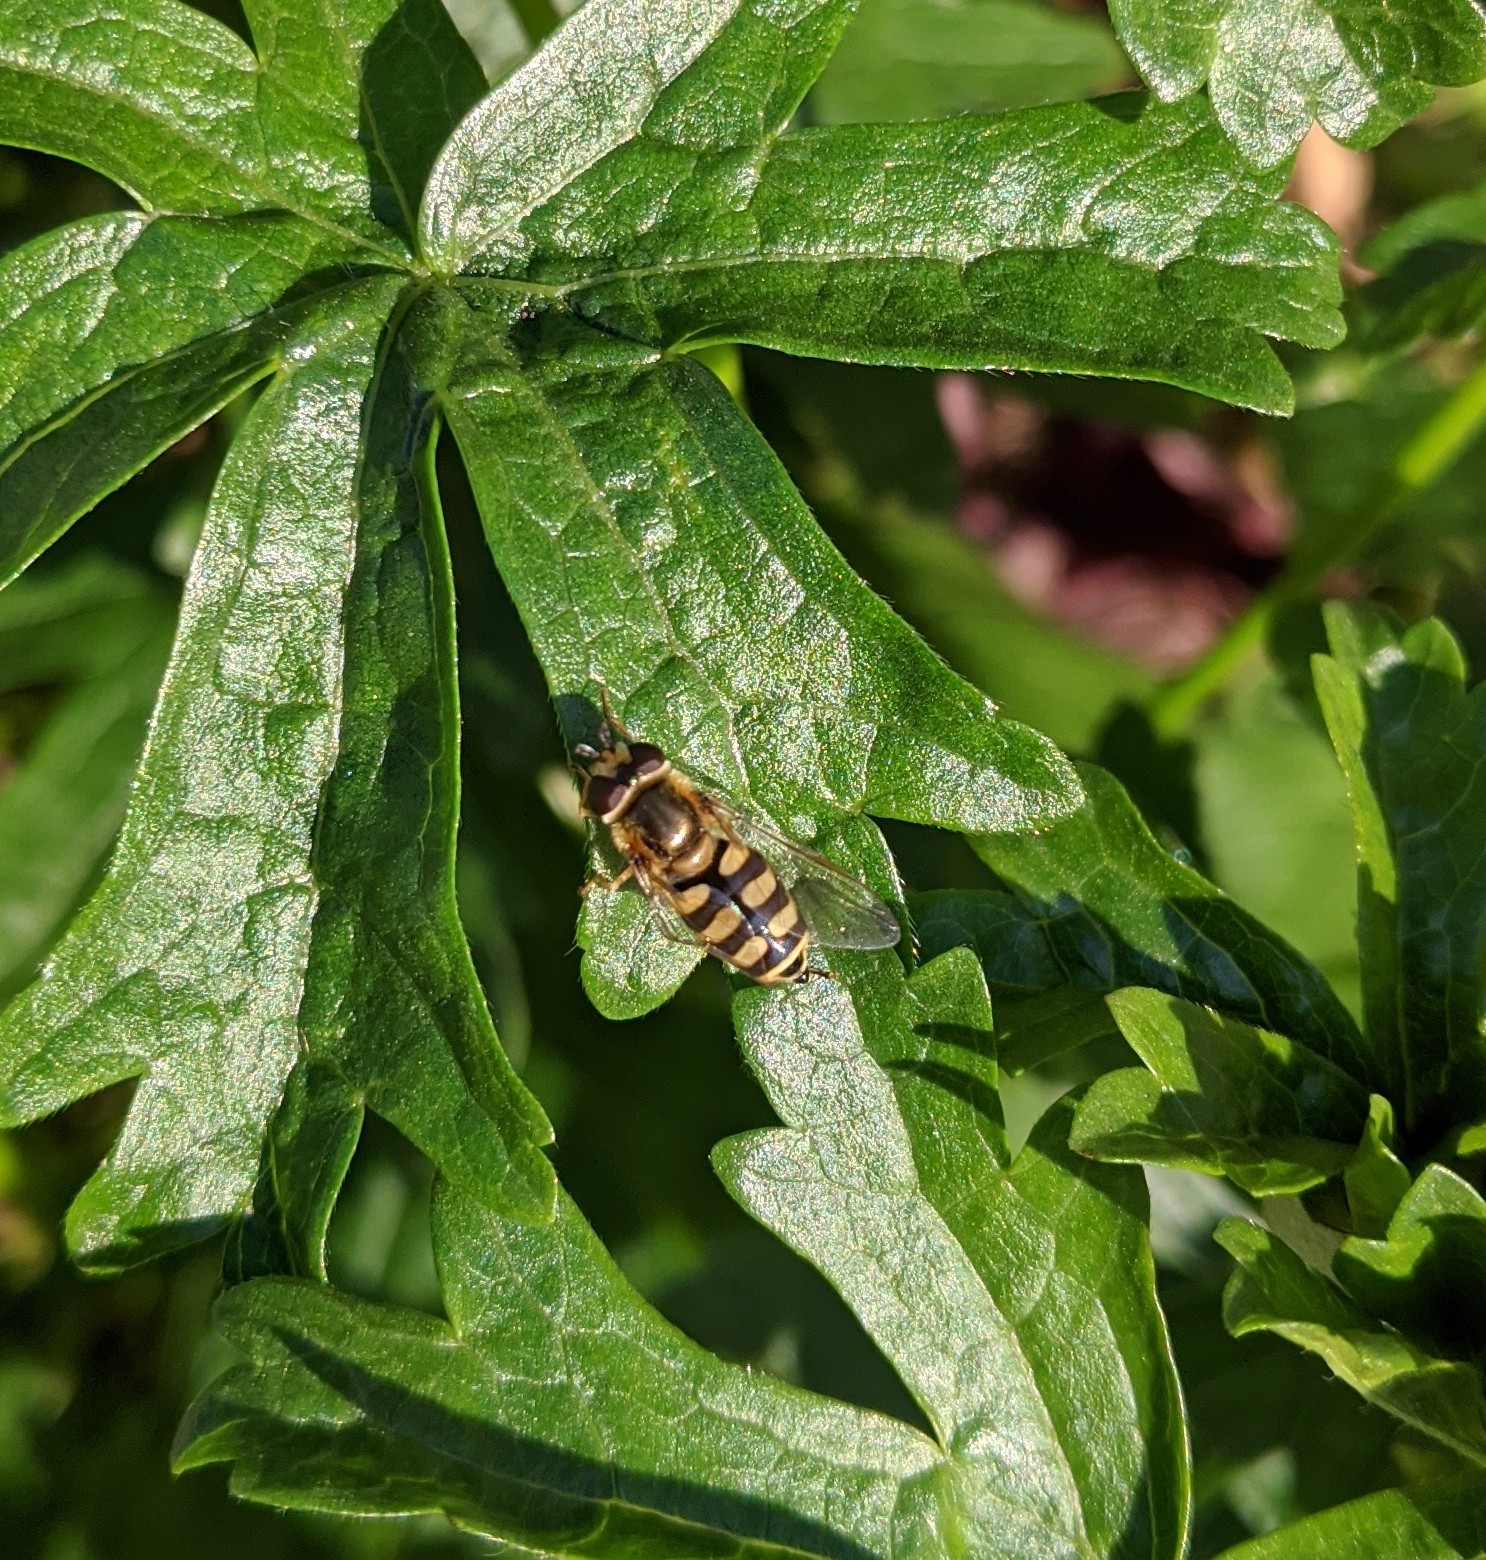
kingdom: Animalia
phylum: Arthropoda
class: Insecta
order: Diptera
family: Syrphidae
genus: Eupeodes
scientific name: Eupeodes
